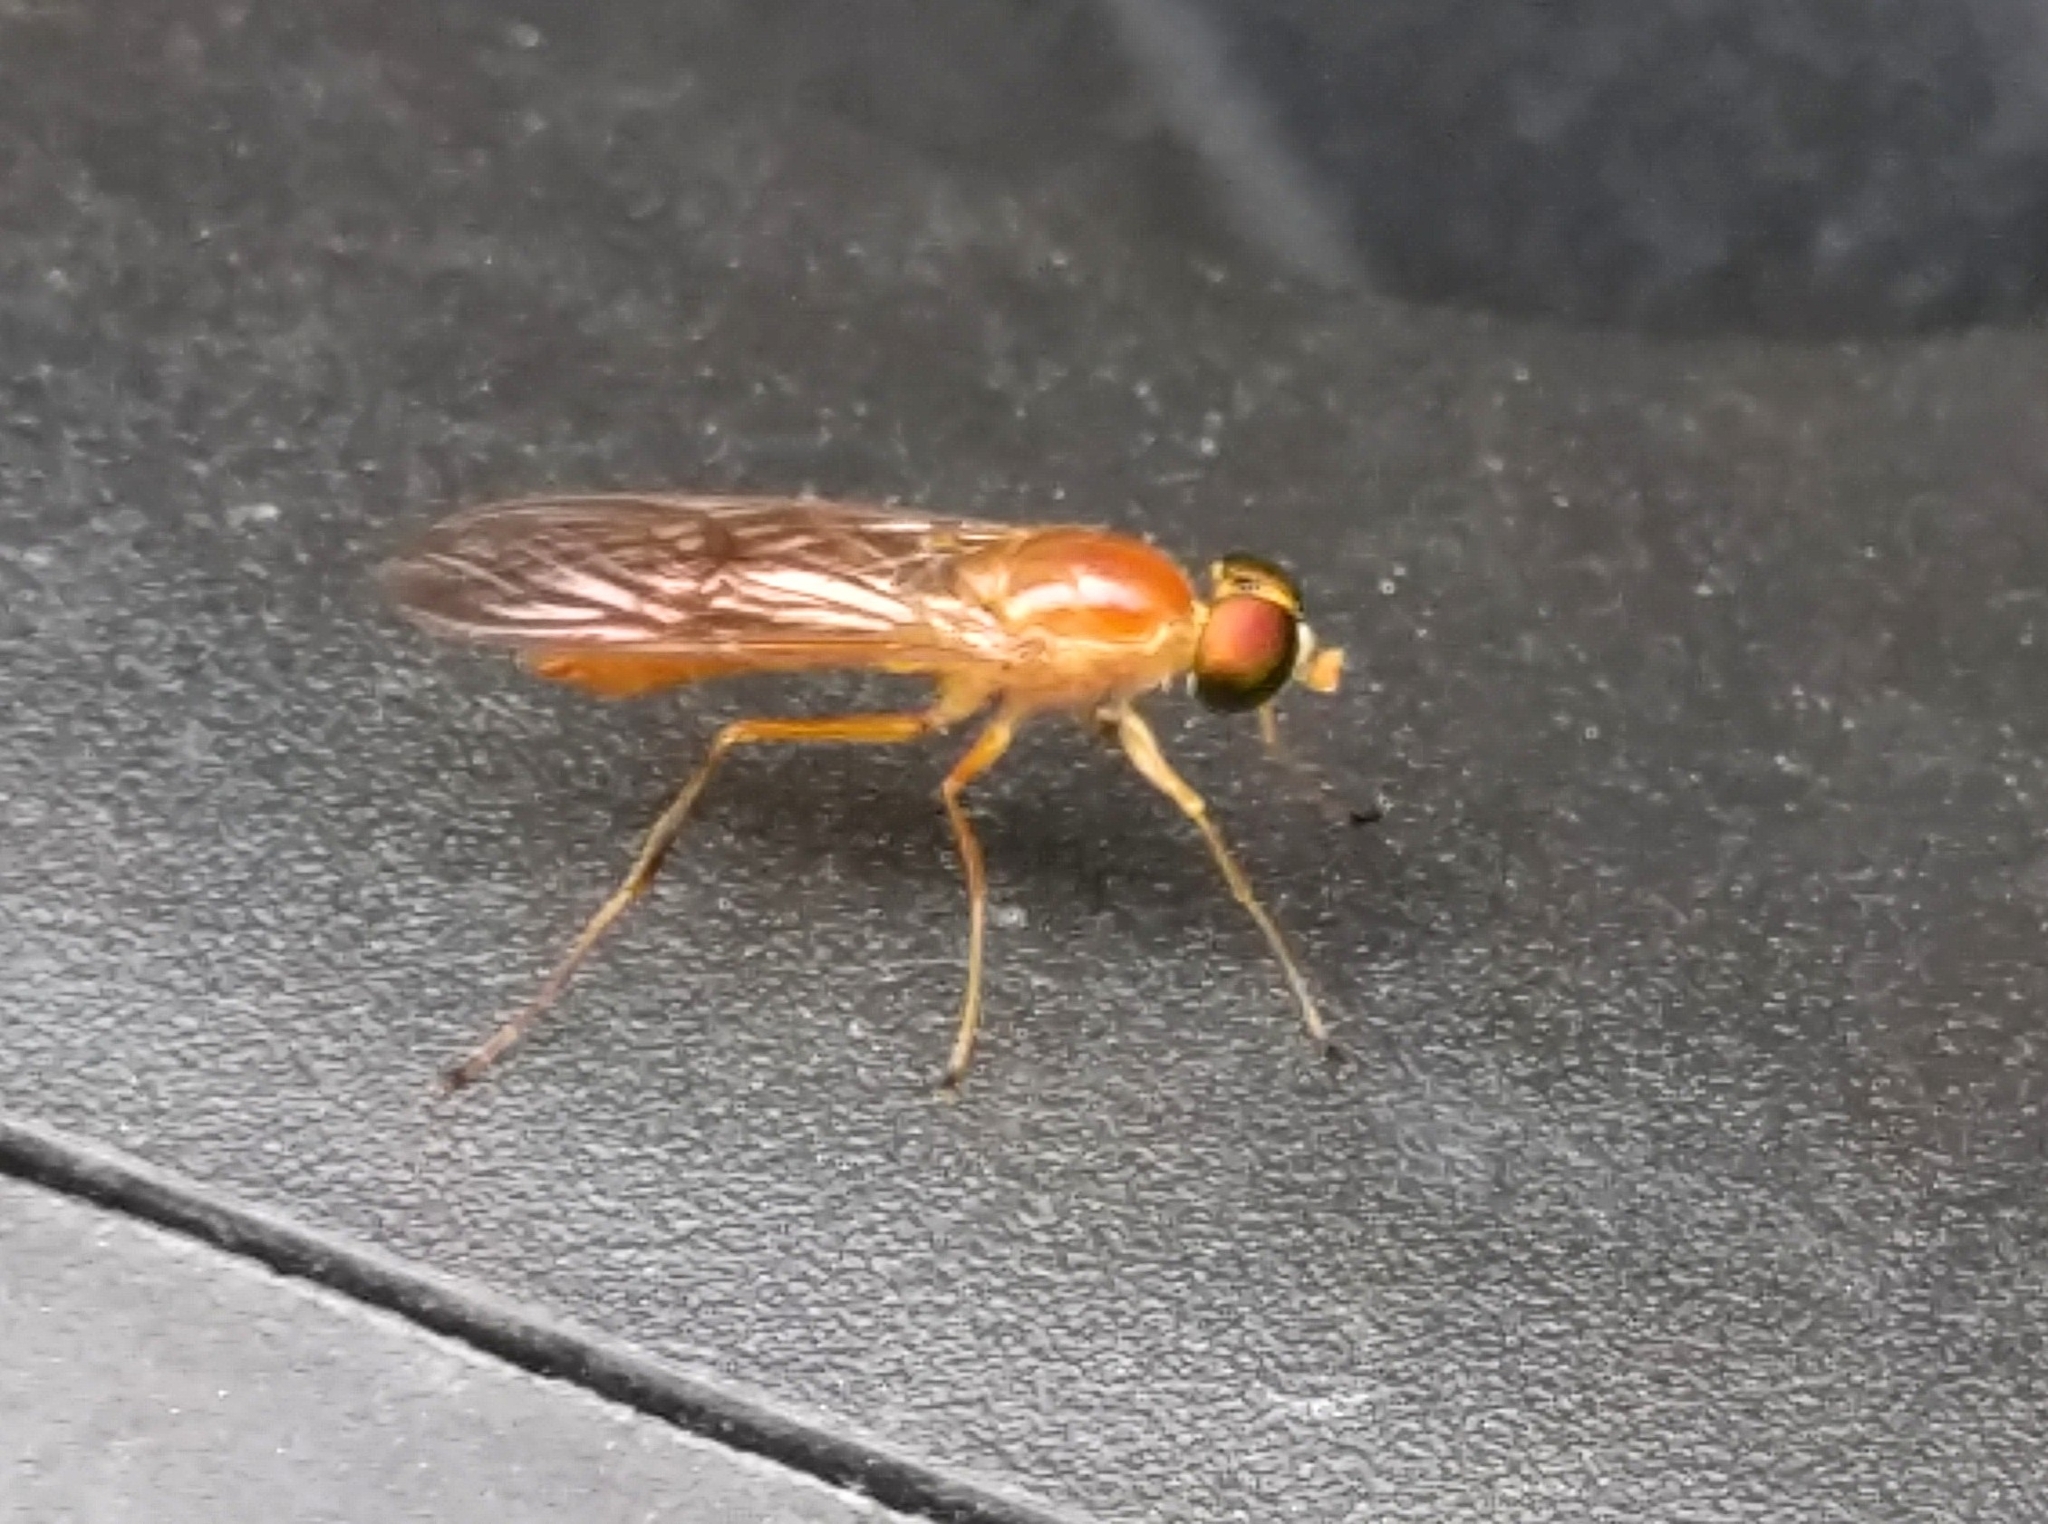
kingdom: Animalia
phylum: Arthropoda
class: Insecta
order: Diptera
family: Stratiomyidae
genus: Ptecticus
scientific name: Ptecticus trivittatus
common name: Compost fly
